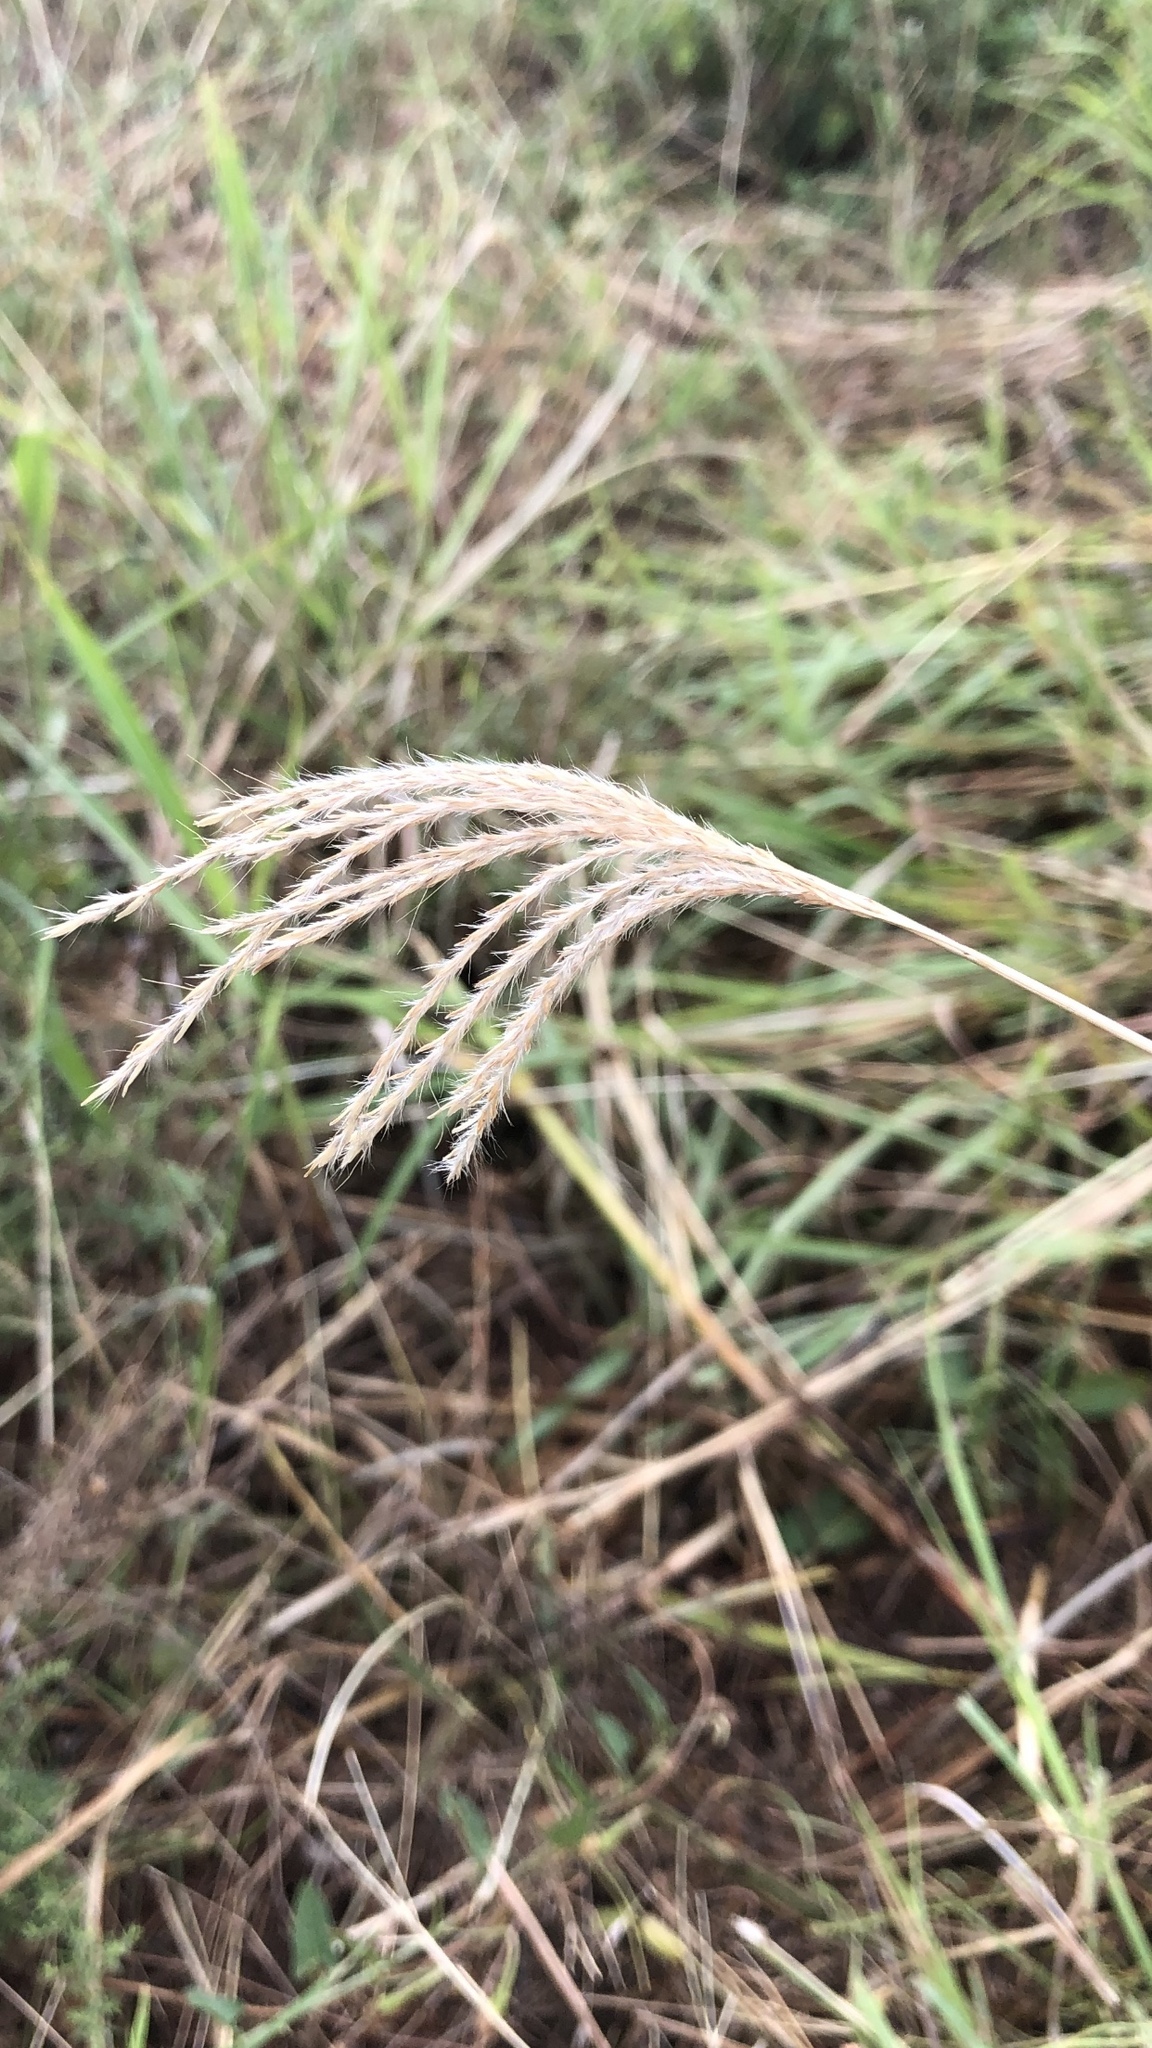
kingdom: Plantae
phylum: Tracheophyta
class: Liliopsida
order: Poales
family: Poaceae
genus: Bothriochloa
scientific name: Bothriochloa ischaemum
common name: Yellow bluestem
